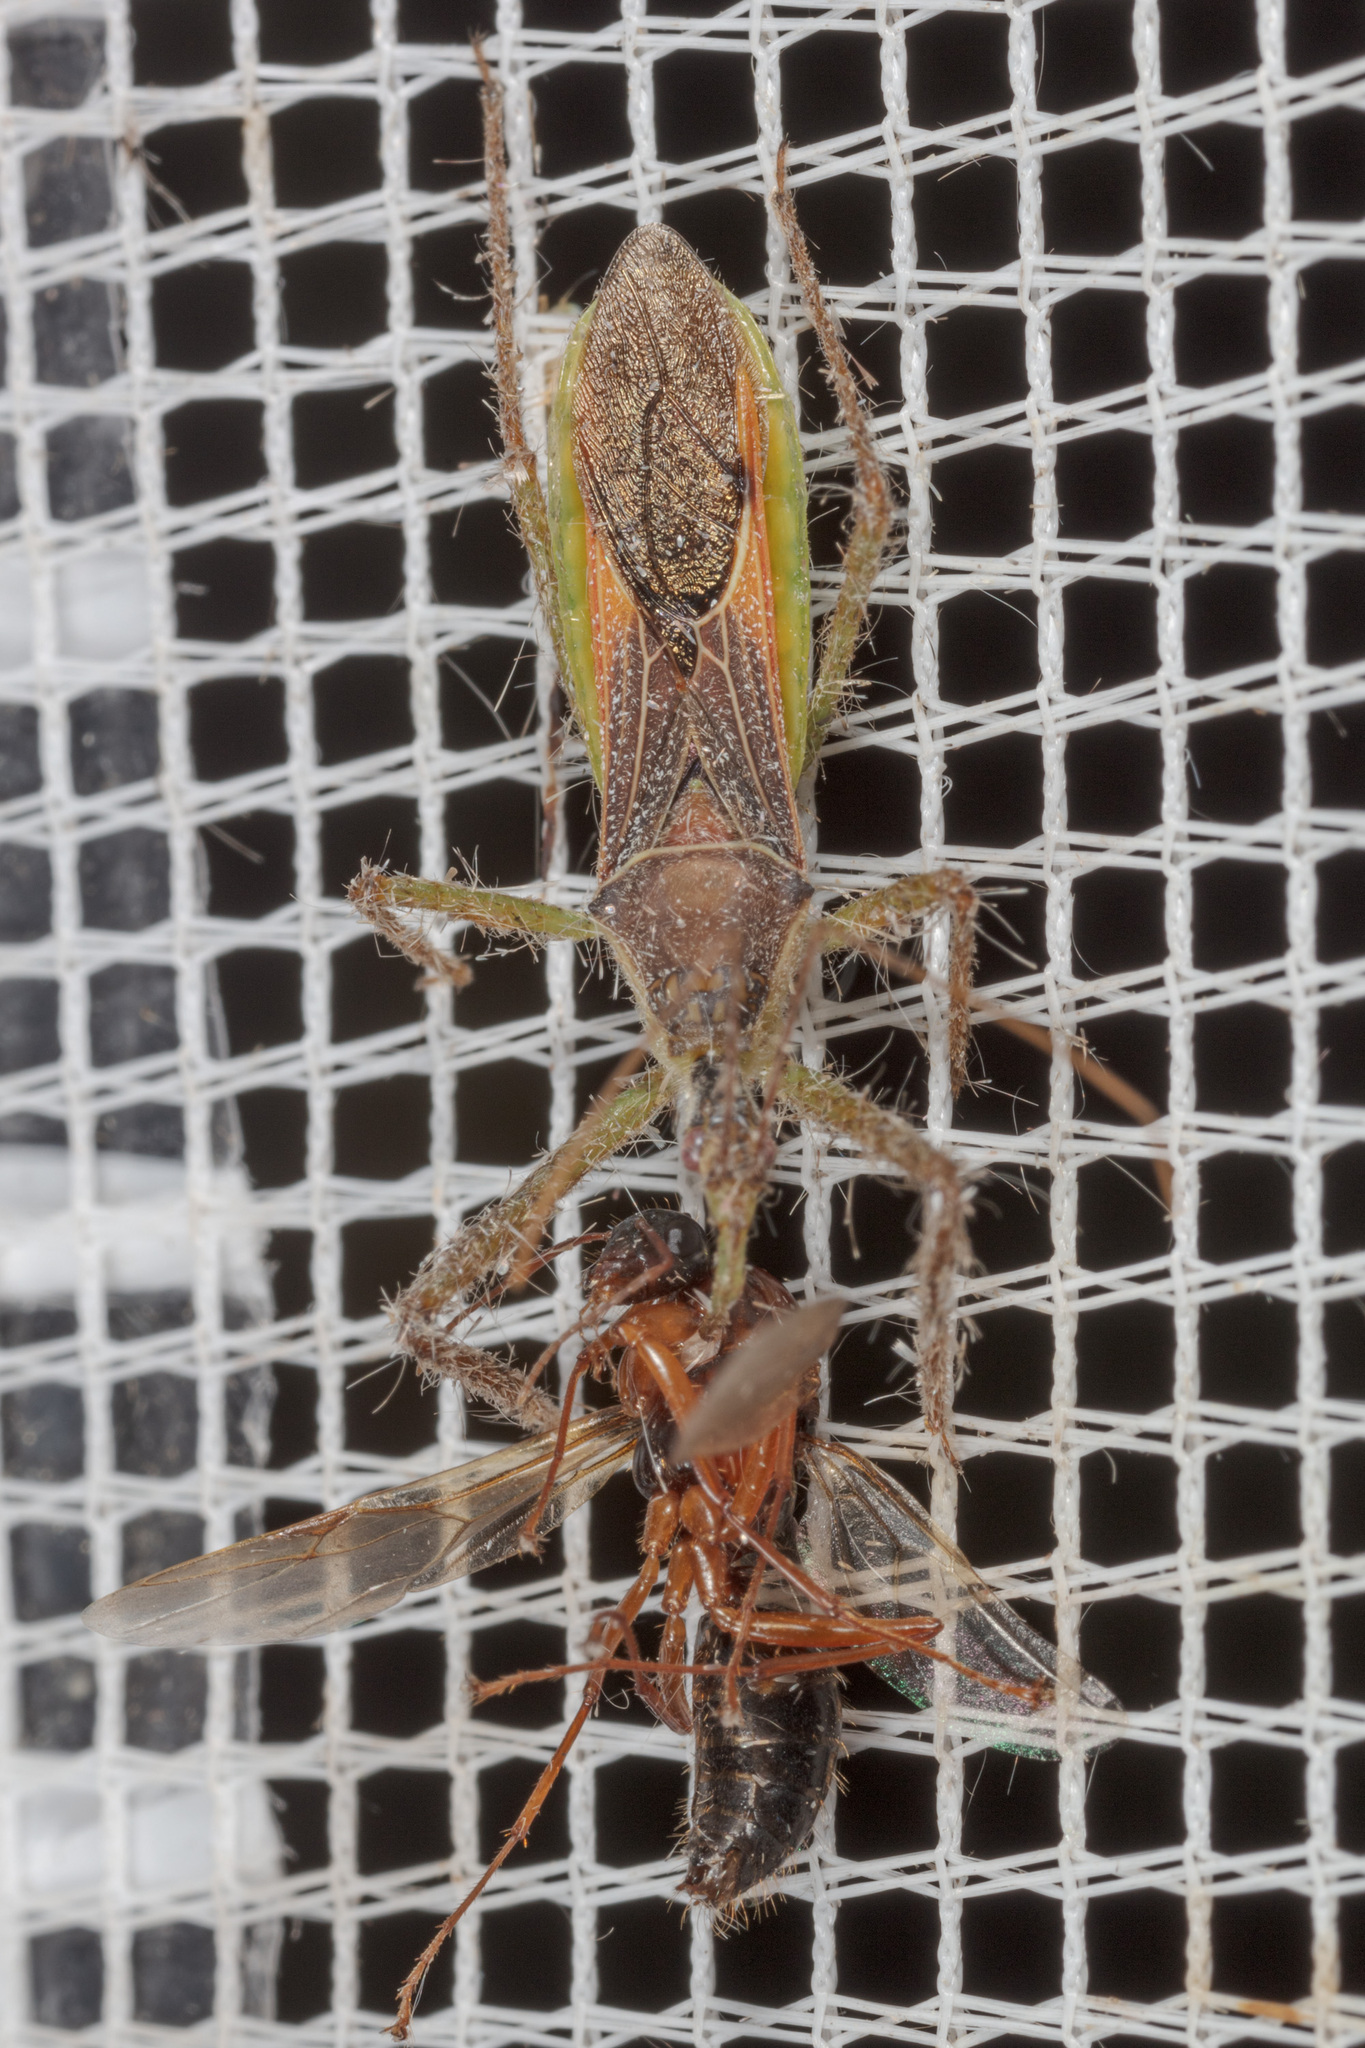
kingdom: Animalia
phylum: Arthropoda
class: Insecta
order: Hemiptera
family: Reduviidae
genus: Zelus
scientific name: Zelus renardii
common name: Assassin bug
